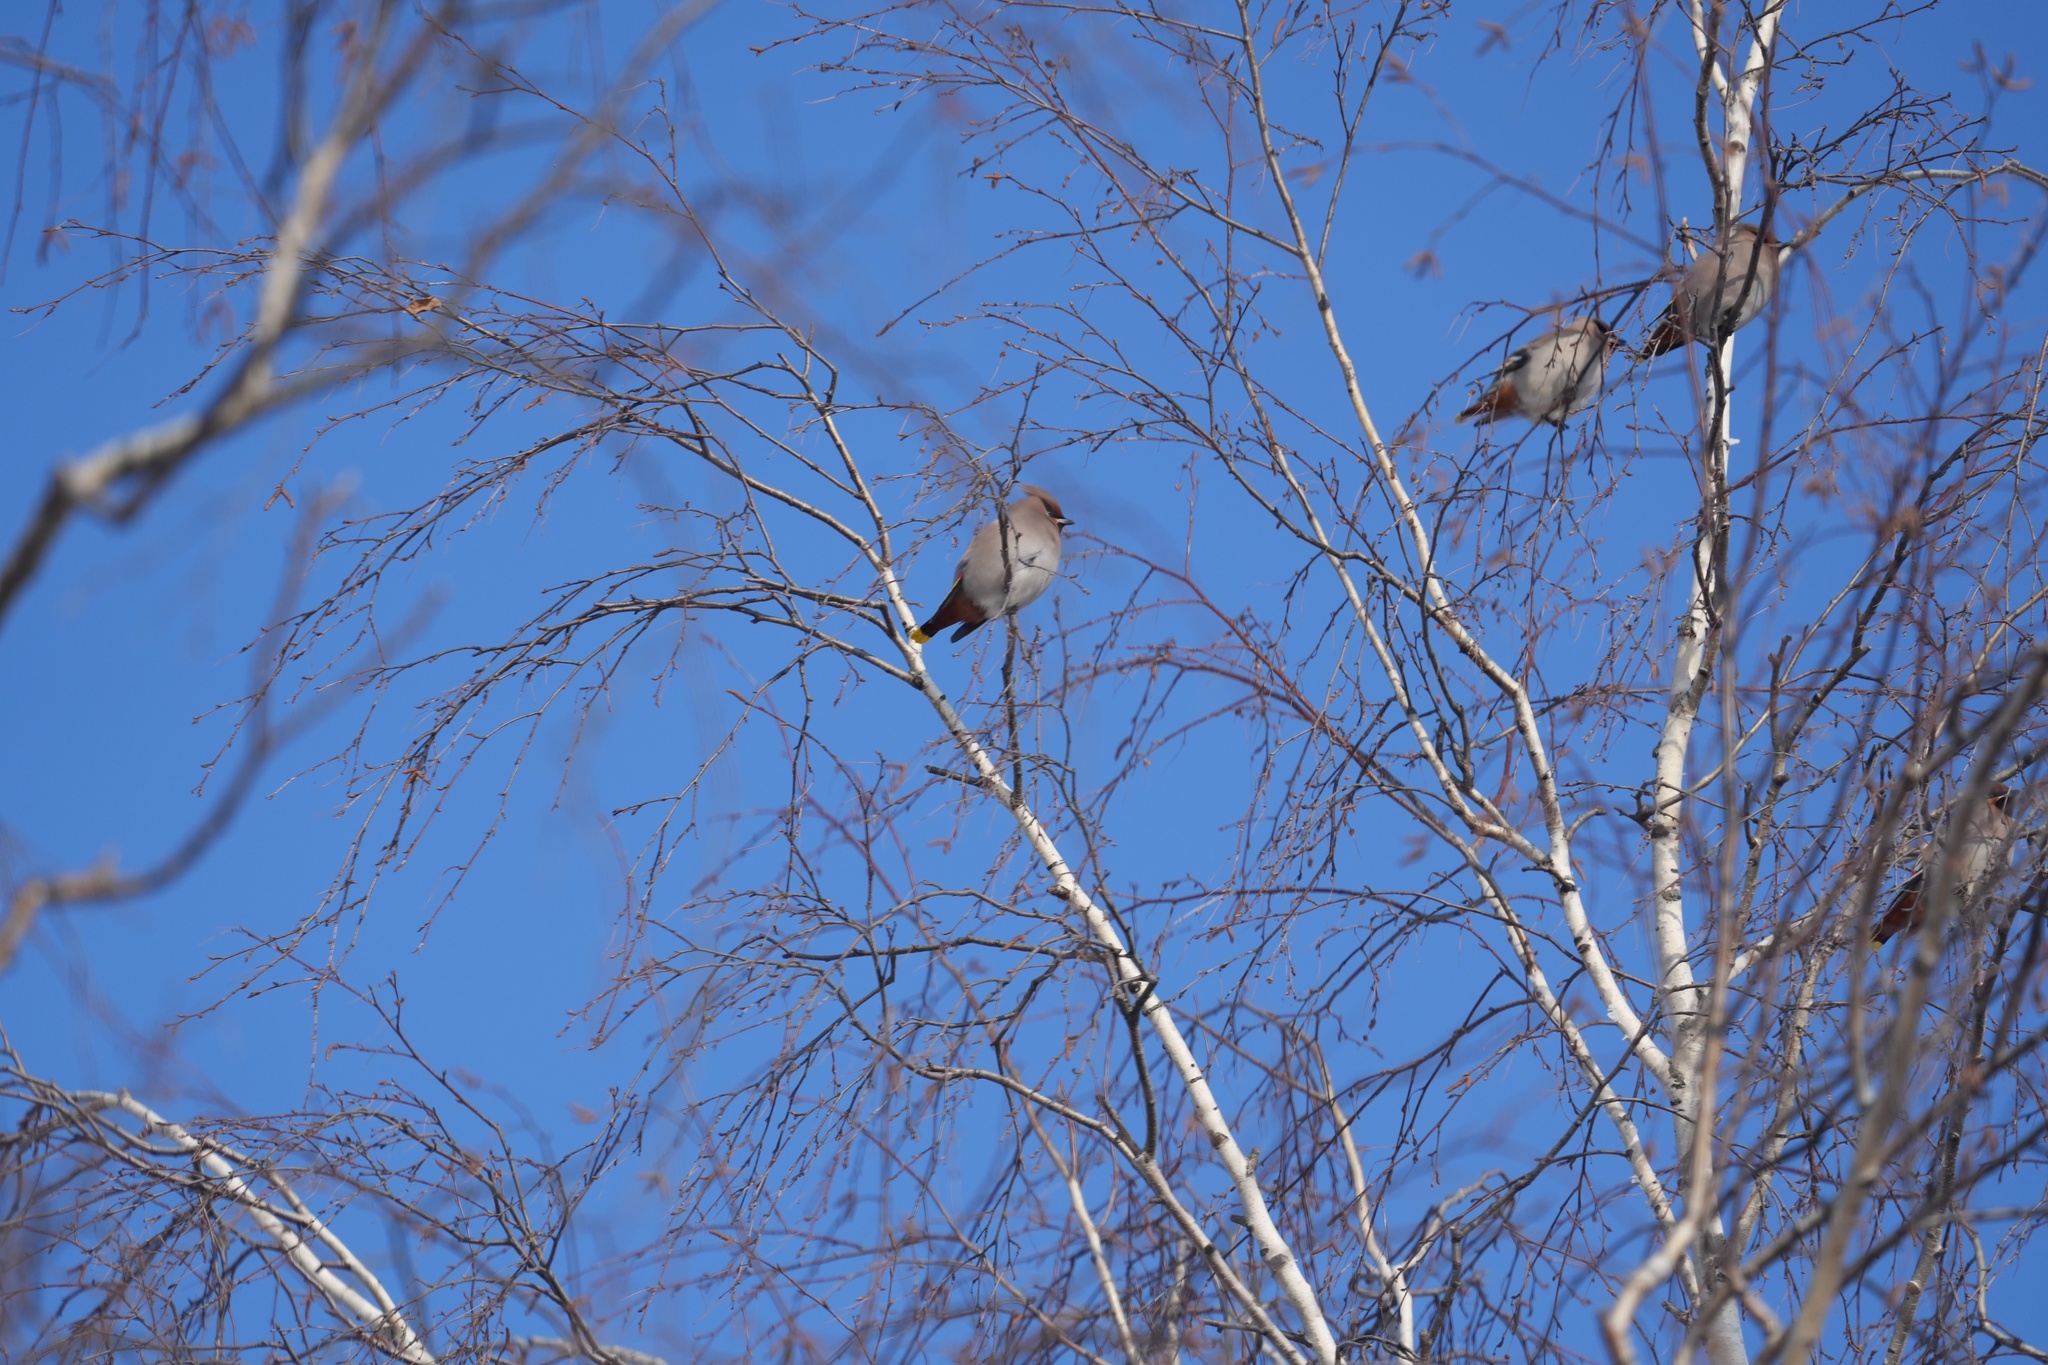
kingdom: Animalia
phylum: Chordata
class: Aves
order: Passeriformes
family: Bombycillidae
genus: Bombycilla
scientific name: Bombycilla garrulus
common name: Bohemian waxwing
